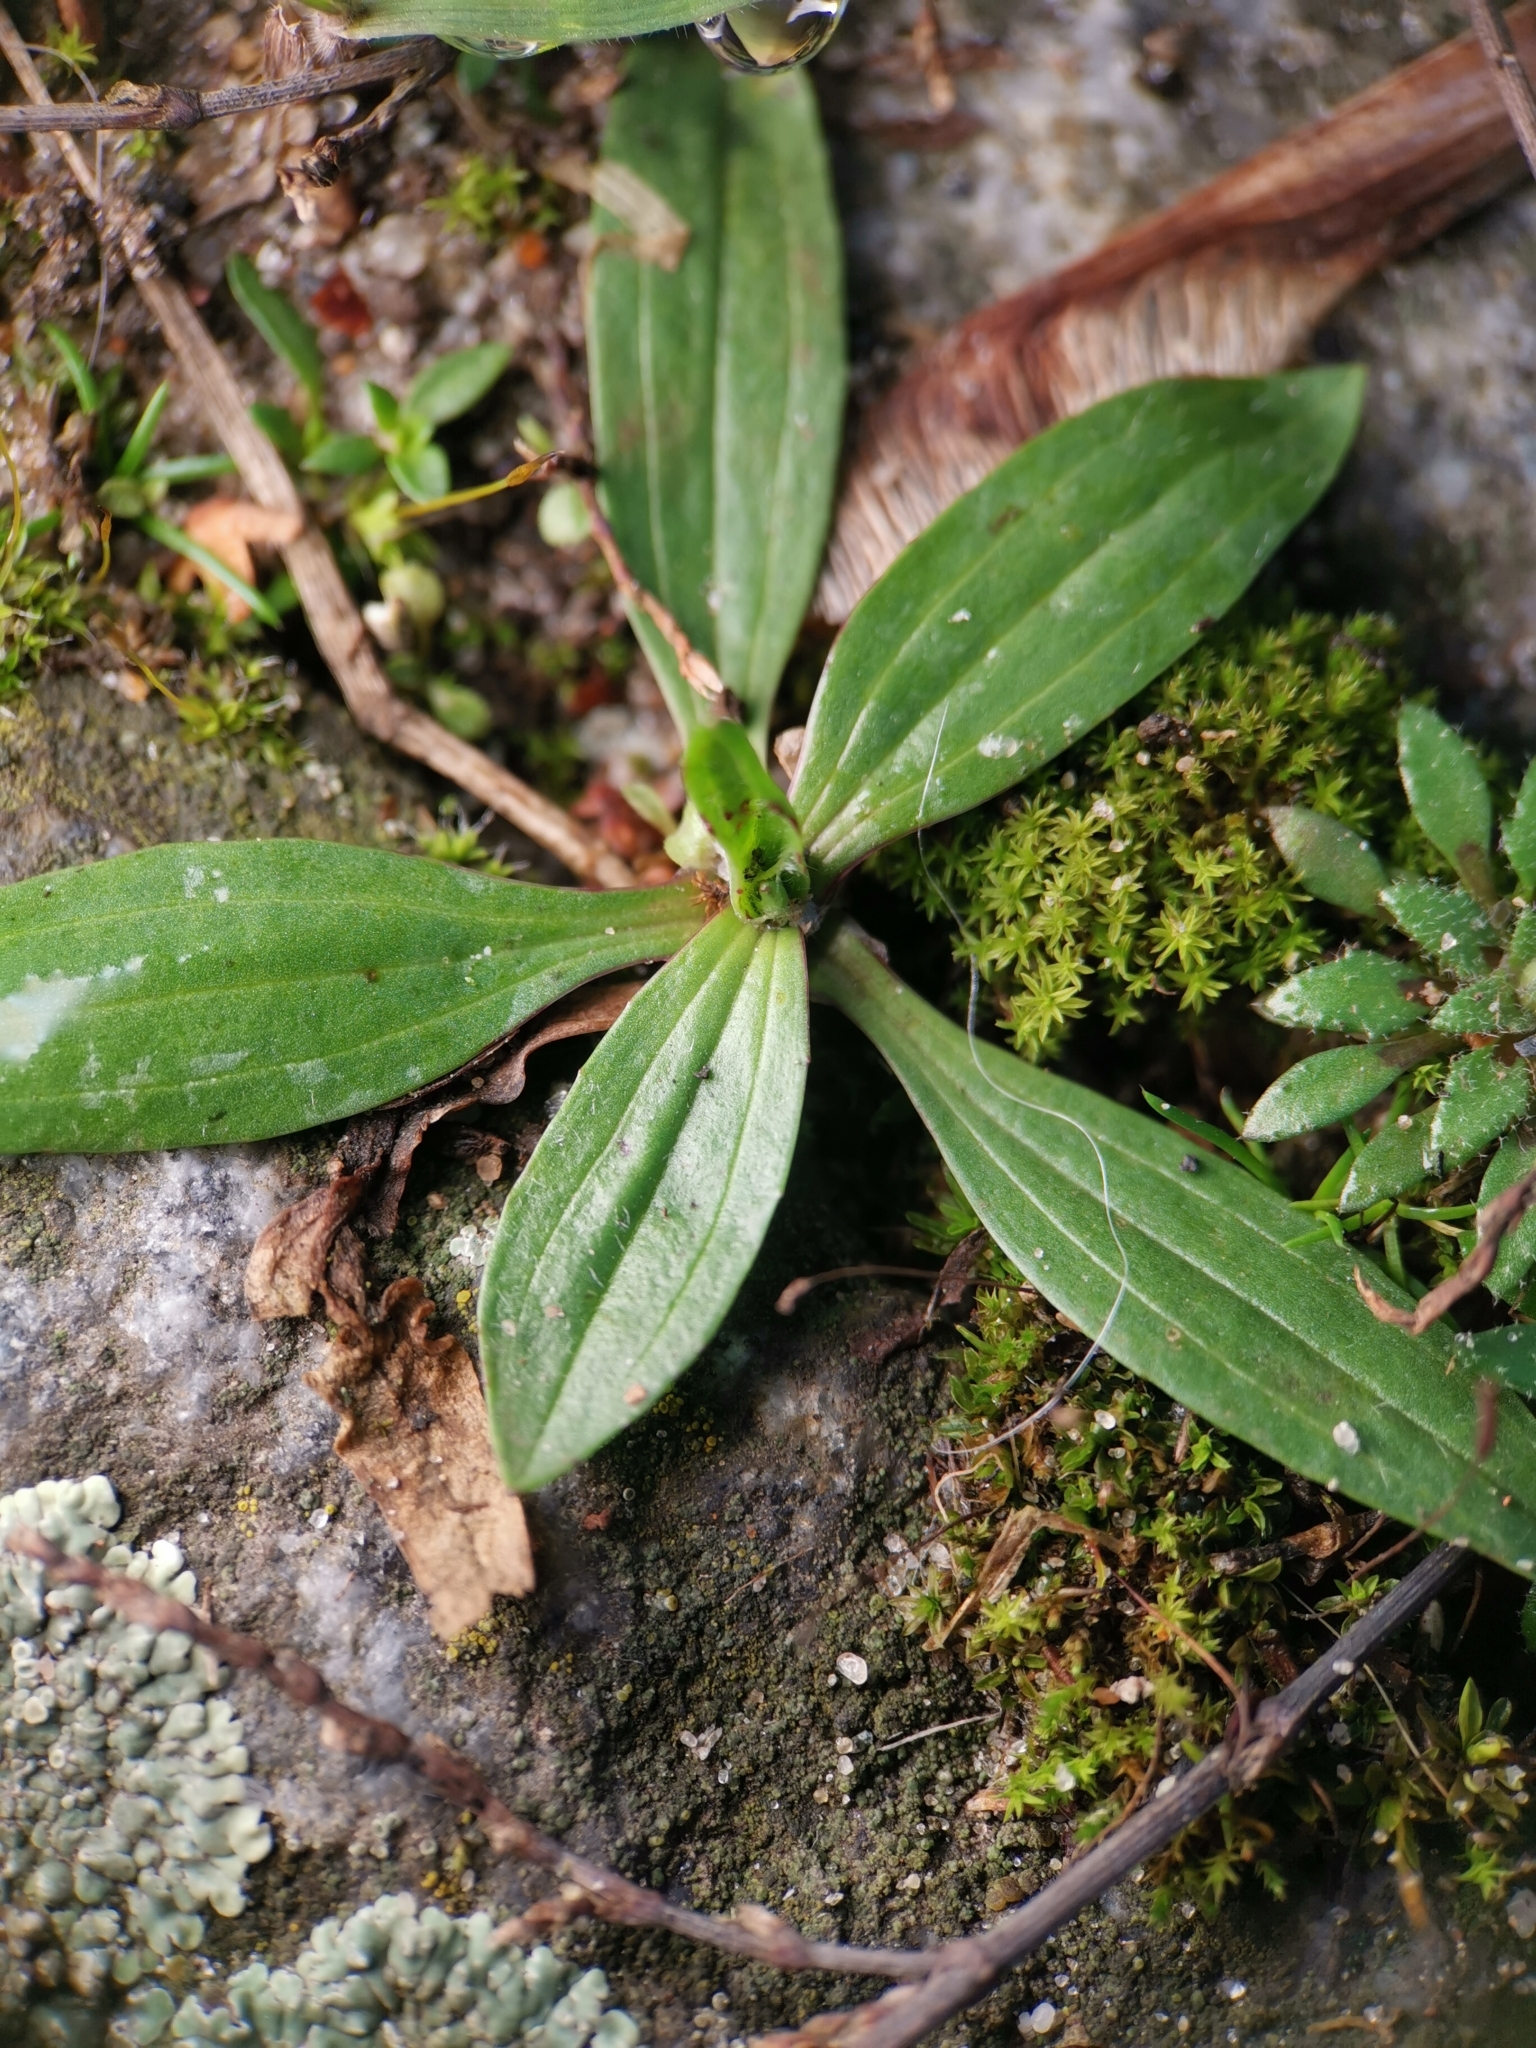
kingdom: Plantae
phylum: Tracheophyta
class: Magnoliopsida
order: Lamiales
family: Plantaginaceae
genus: Plantago
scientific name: Plantago lanceolata
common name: Ribwort plantain
